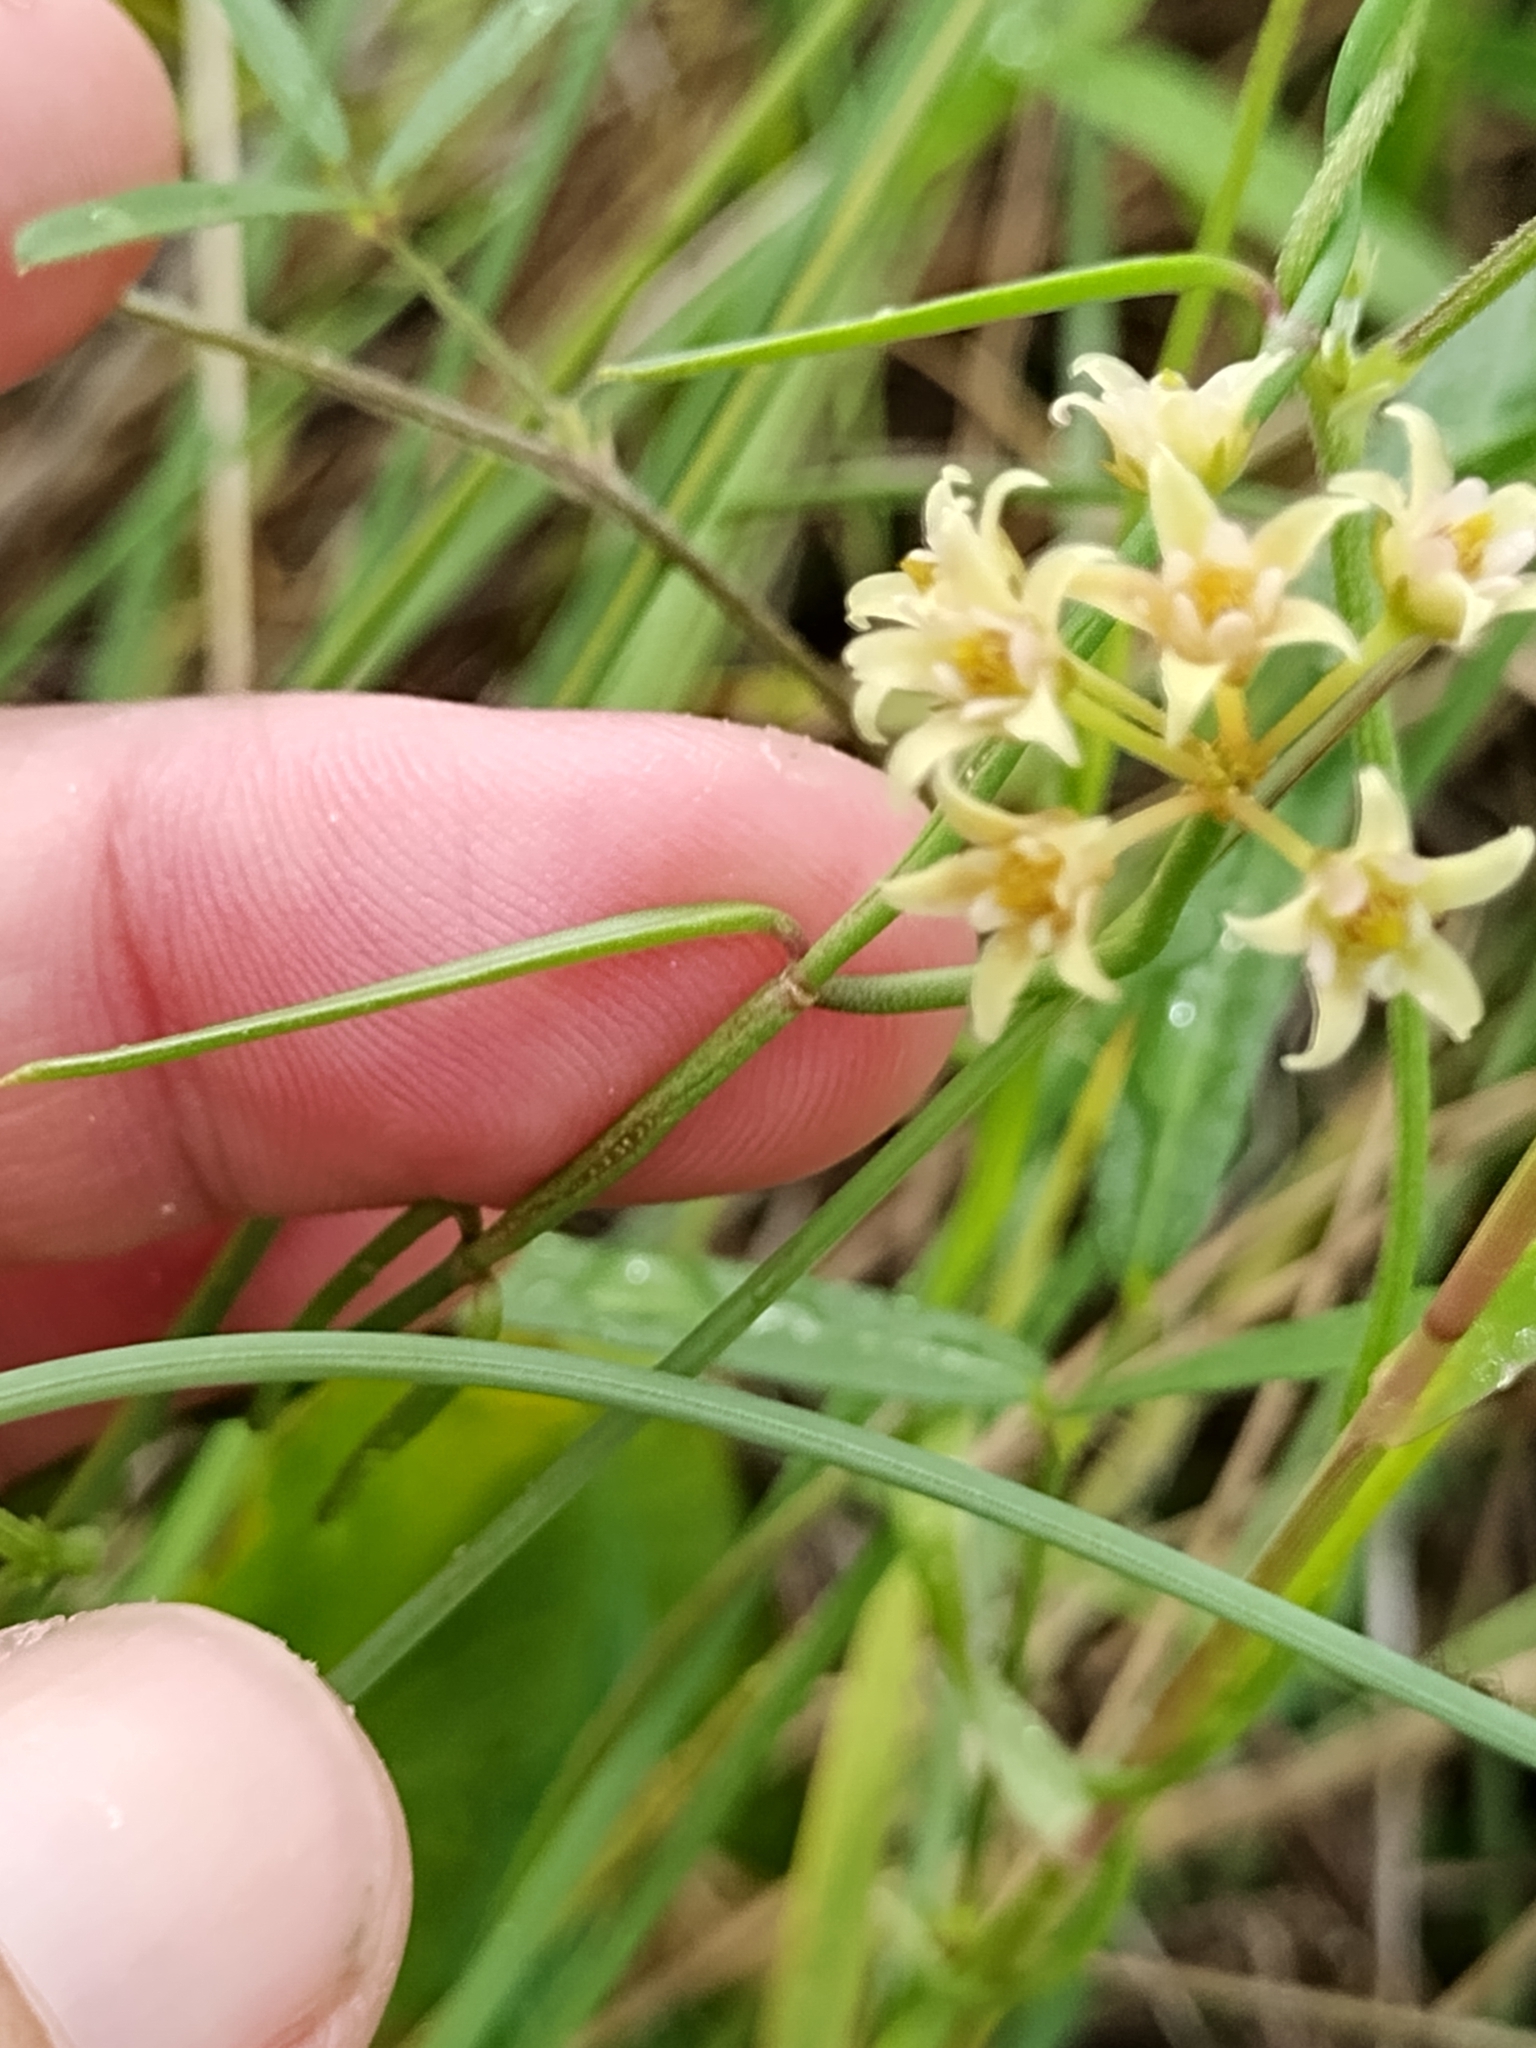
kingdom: Plantae
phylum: Tracheophyta
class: Magnoliopsida
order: Gentianales
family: Apocynaceae
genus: Pattalias
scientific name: Pattalias
